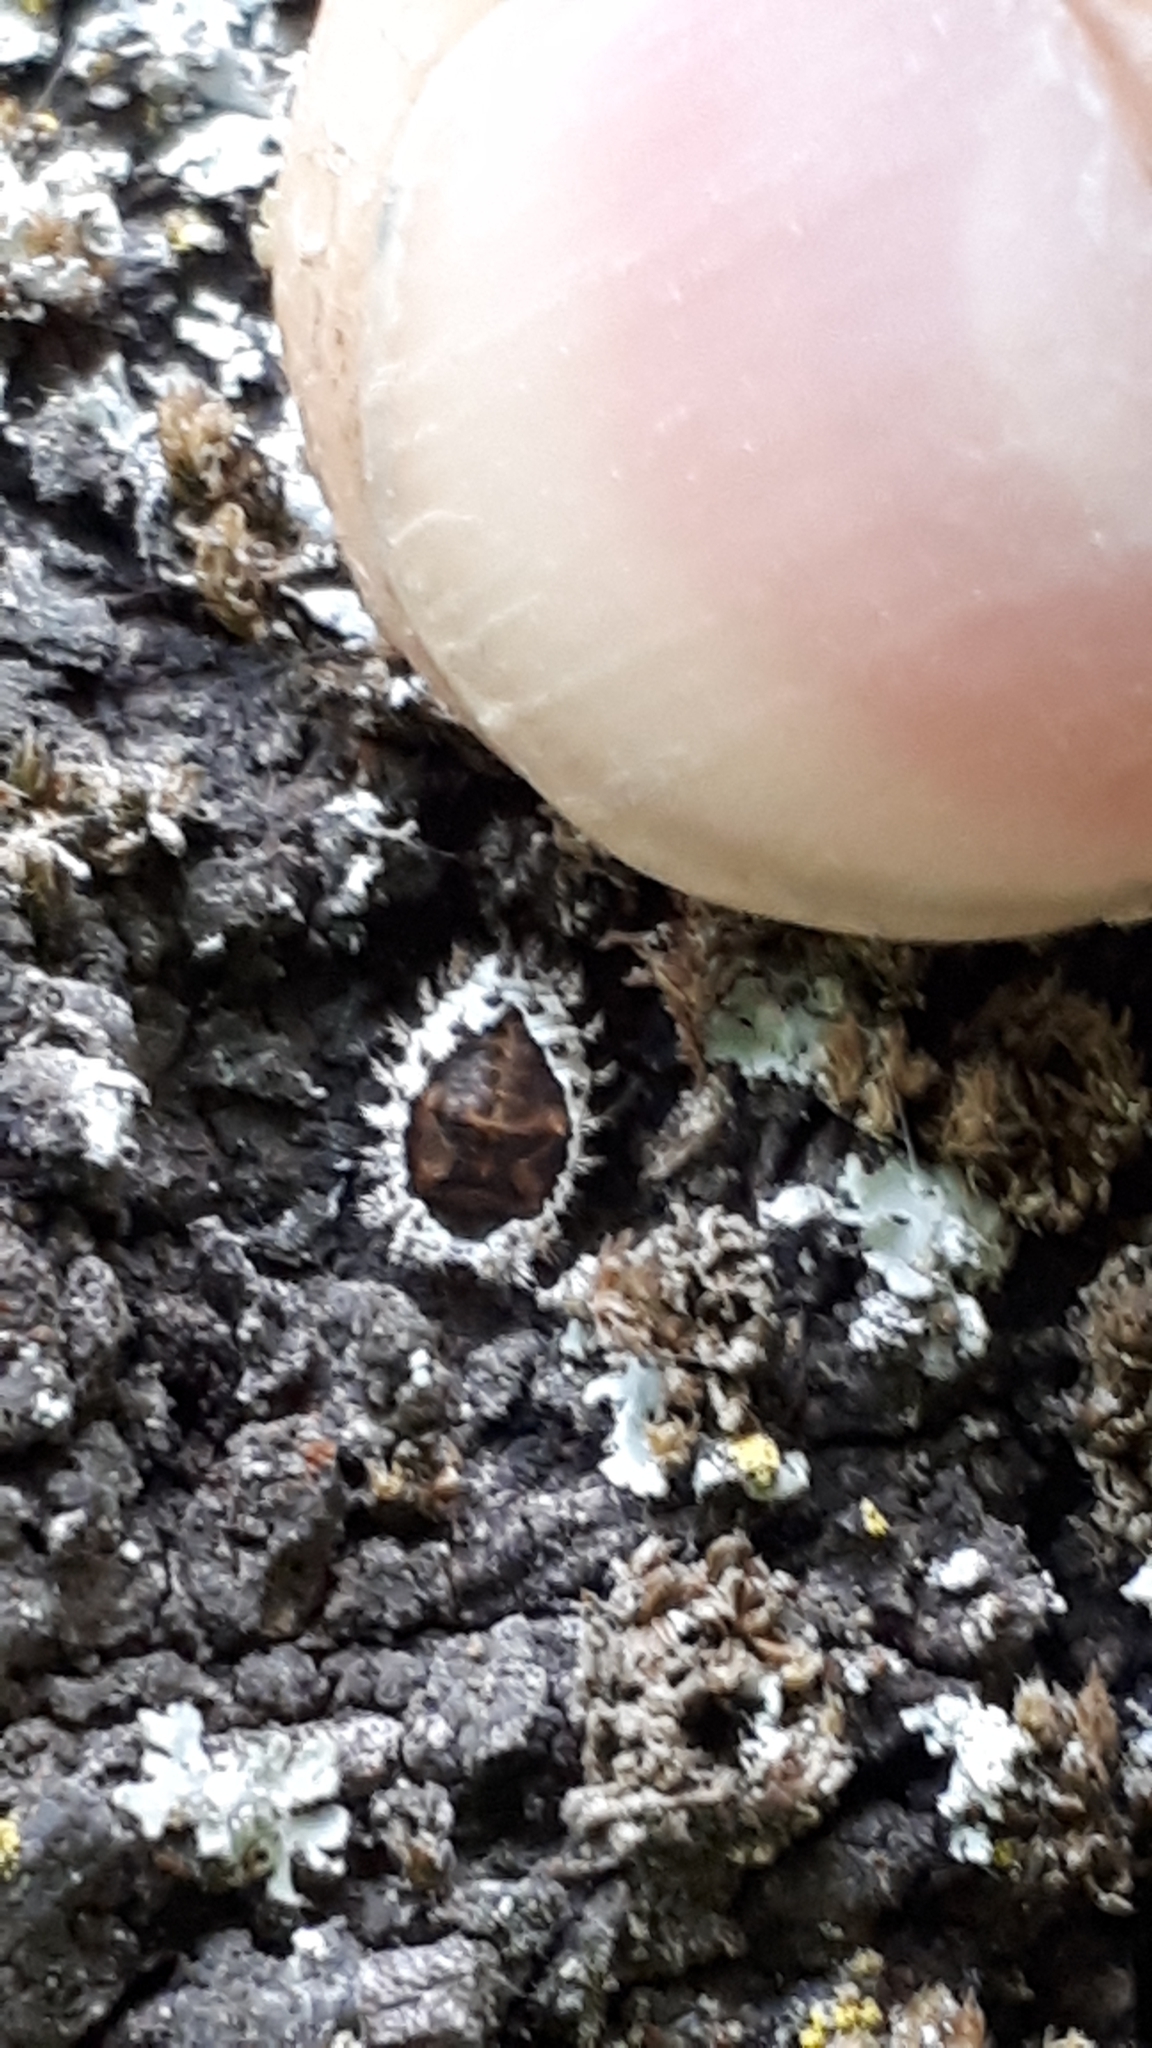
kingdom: Animalia
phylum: Arthropoda
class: Insecta
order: Coleoptera
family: Coccinellidae
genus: Brumus
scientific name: Brumus quadripustulatus
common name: Ladybird beetle
